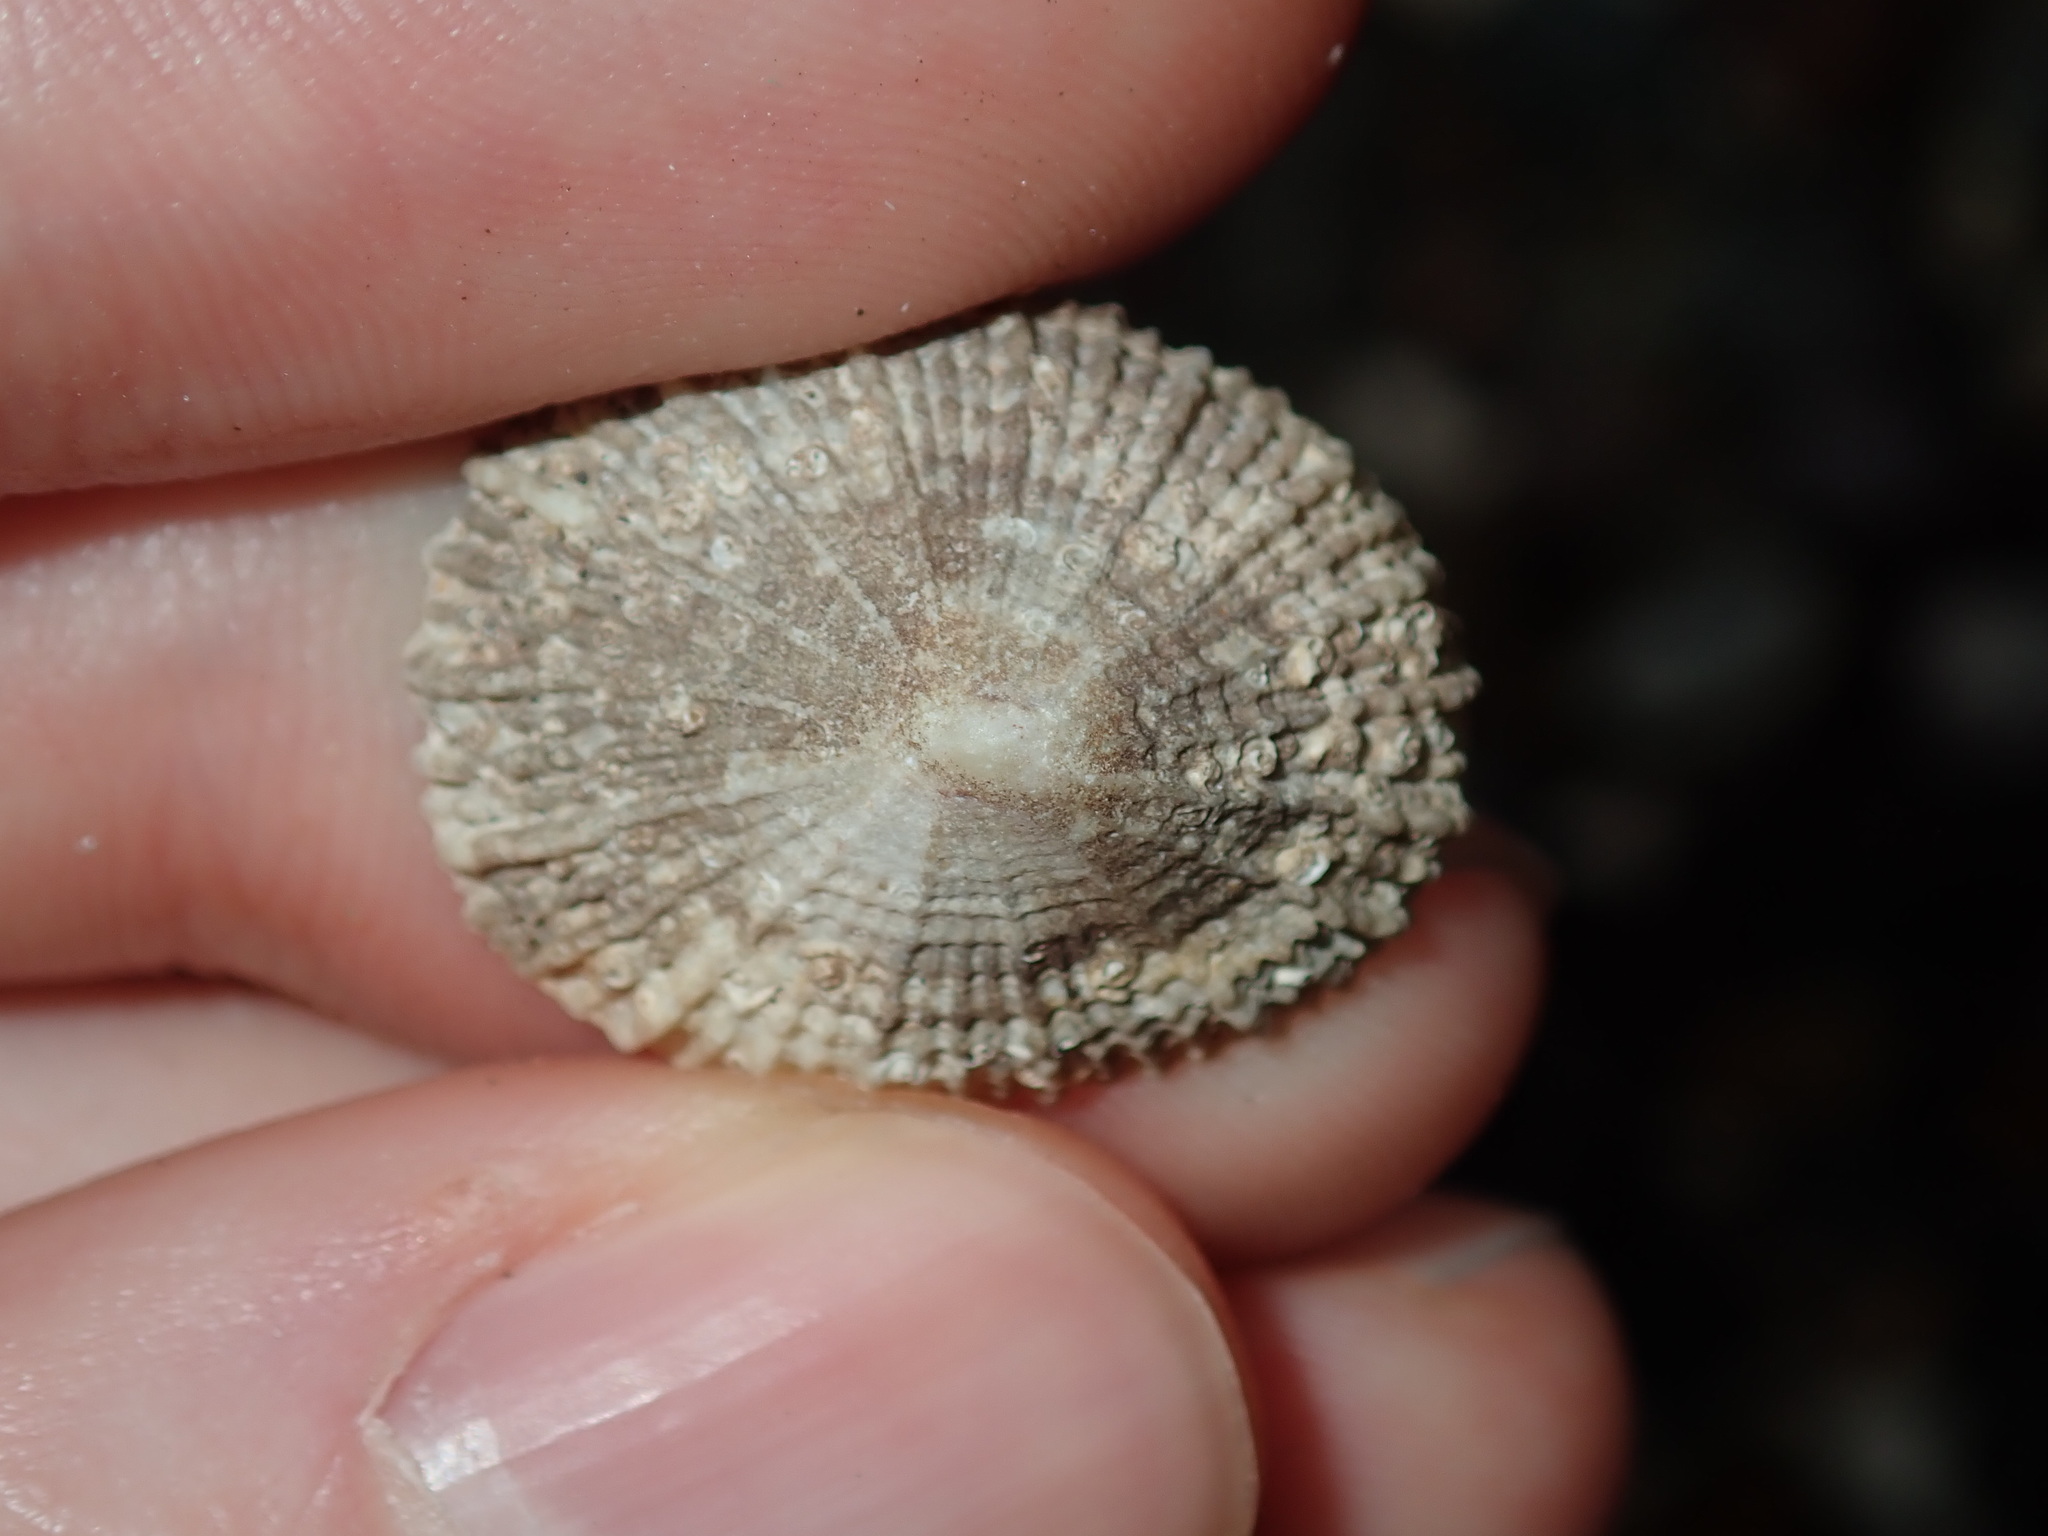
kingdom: Animalia
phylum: Mollusca
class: Gastropoda
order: Lepetellida
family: Fissurellidae
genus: Montfortula
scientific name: Montfortula rugosa
